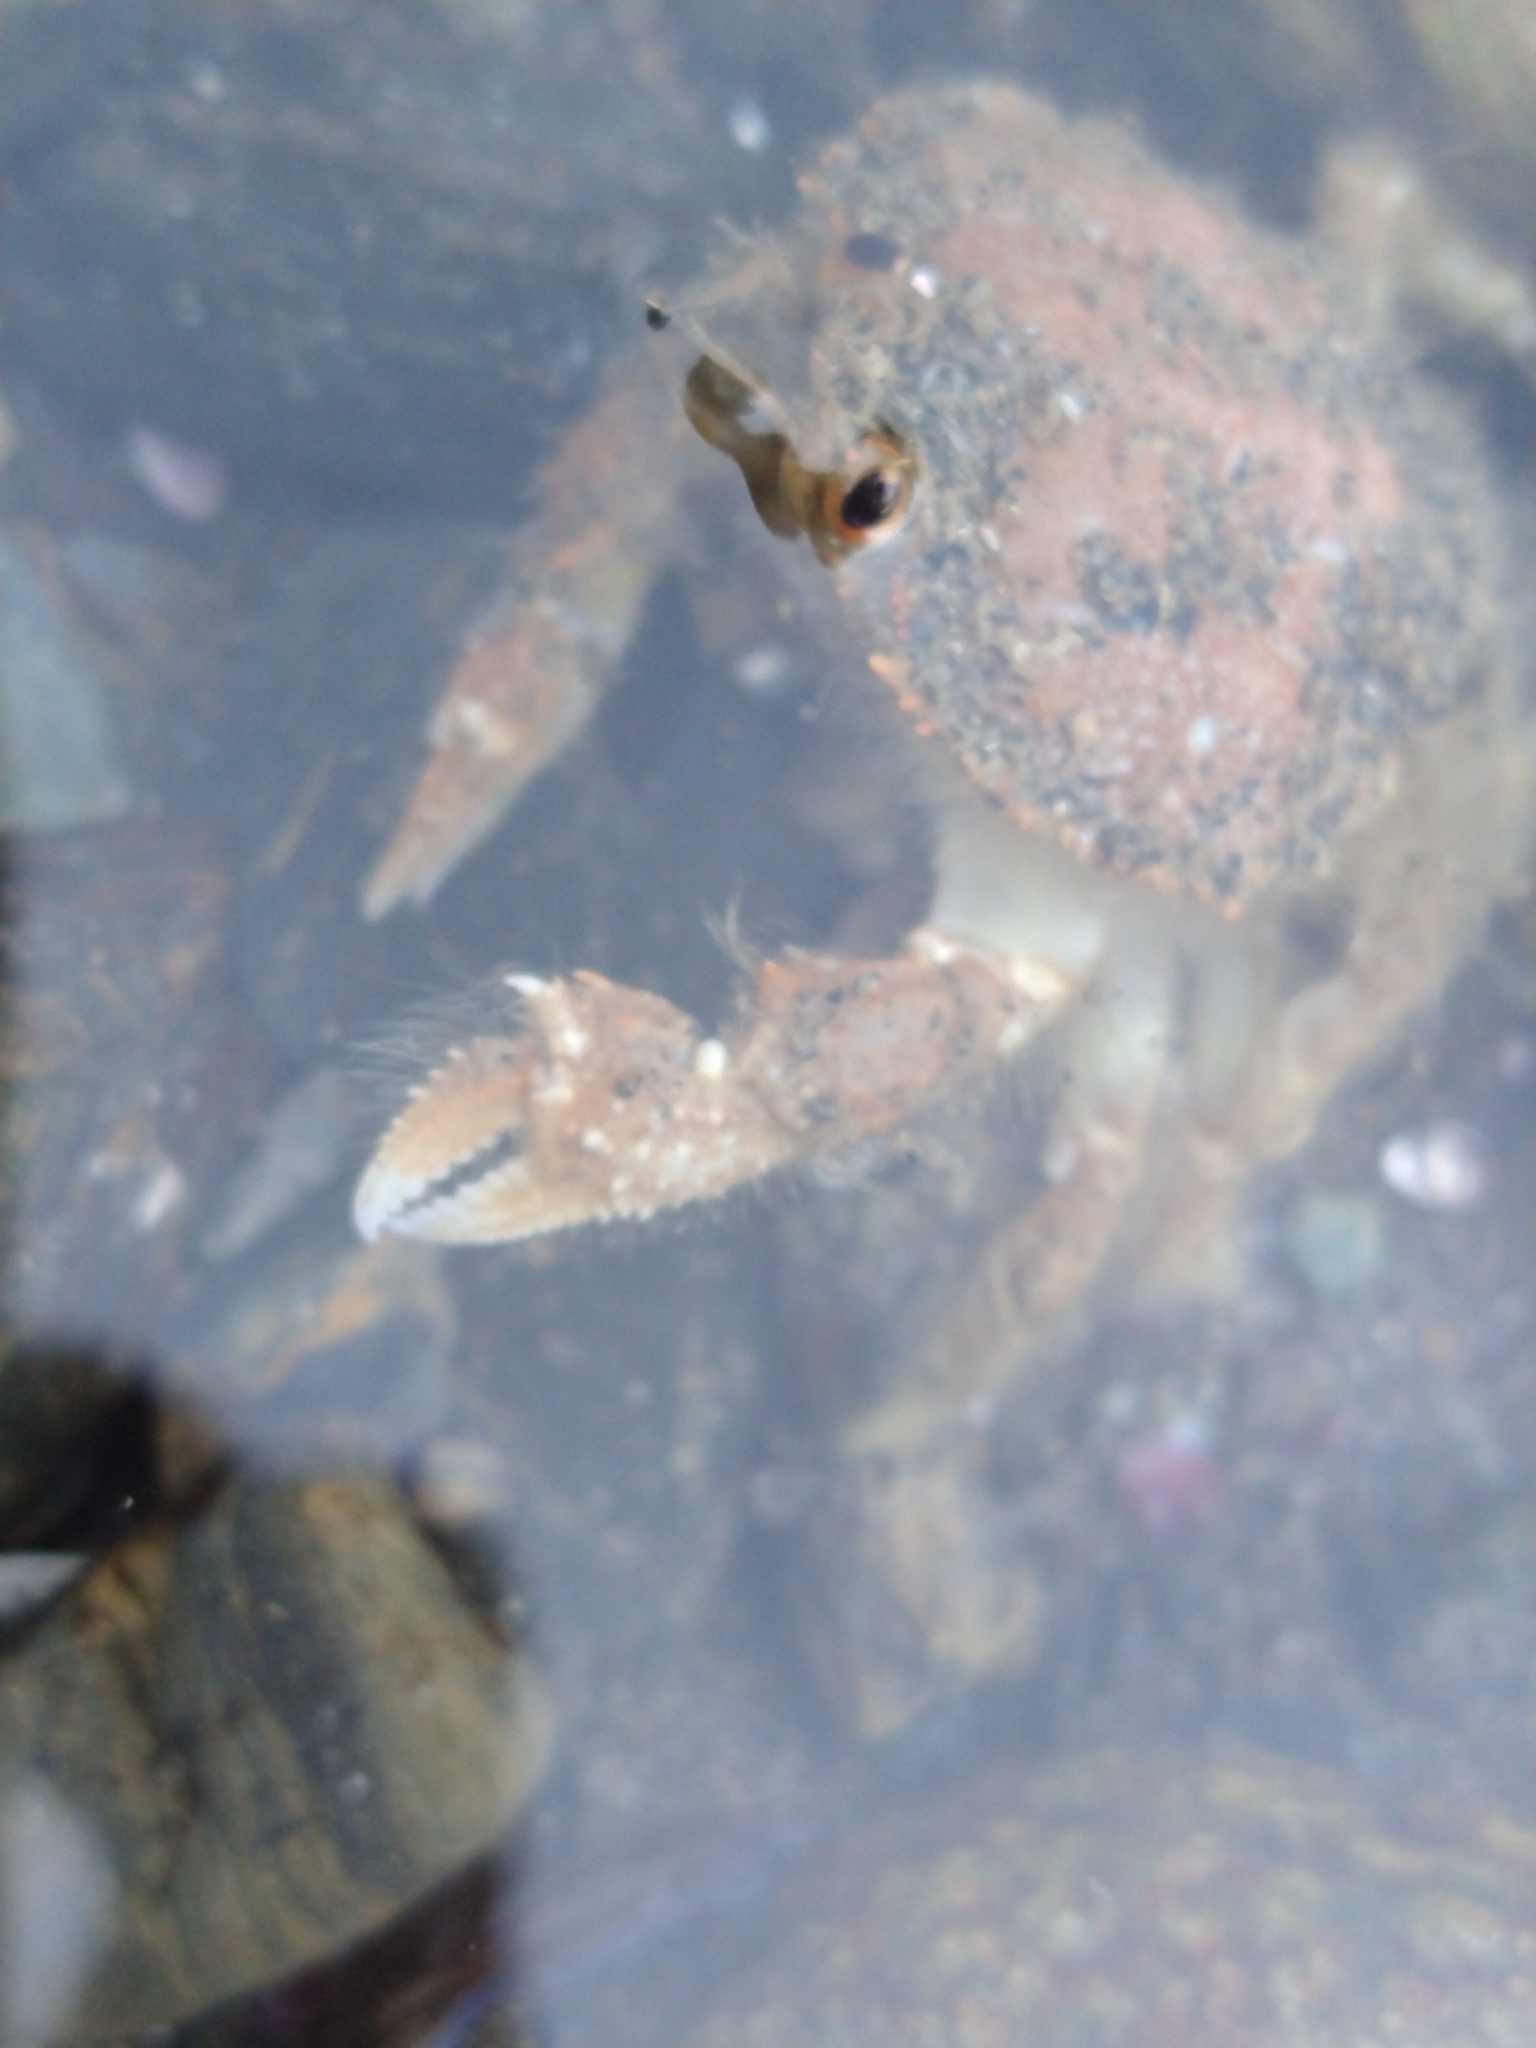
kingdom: Animalia
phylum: Arthropoda
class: Malacostraca
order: Decapoda
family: Trichopeltariidae
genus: Peltarion
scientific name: Peltarion spinulosum
